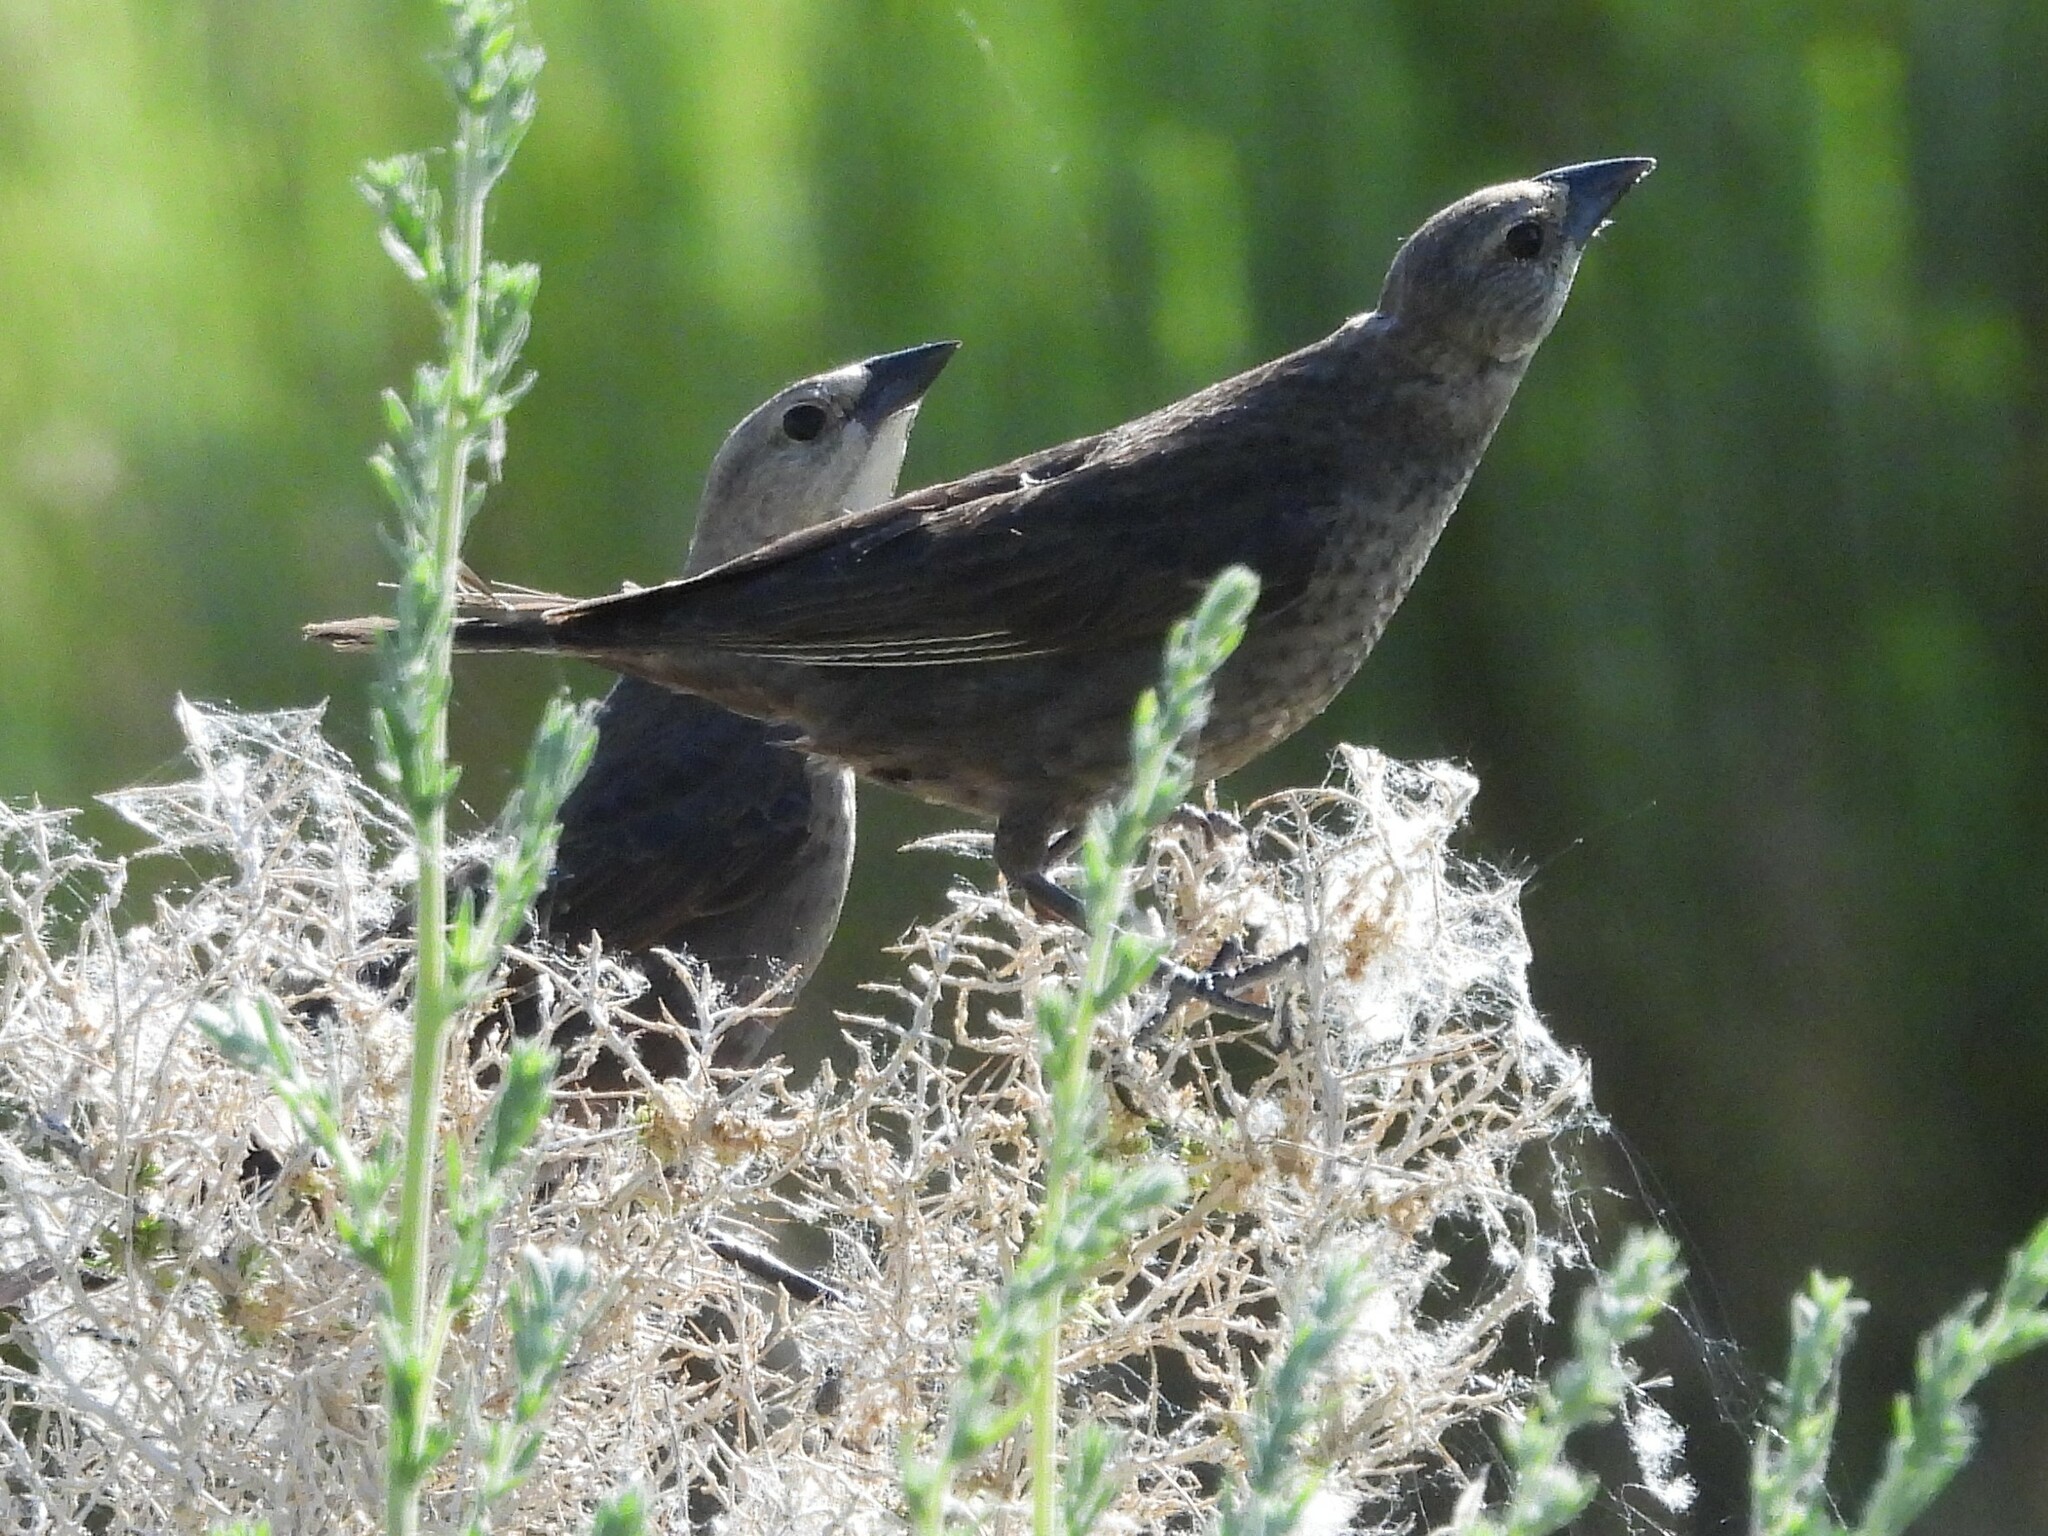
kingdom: Animalia
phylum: Chordata
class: Aves
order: Passeriformes
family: Icteridae
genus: Molothrus
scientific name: Molothrus ater
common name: Brown-headed cowbird
